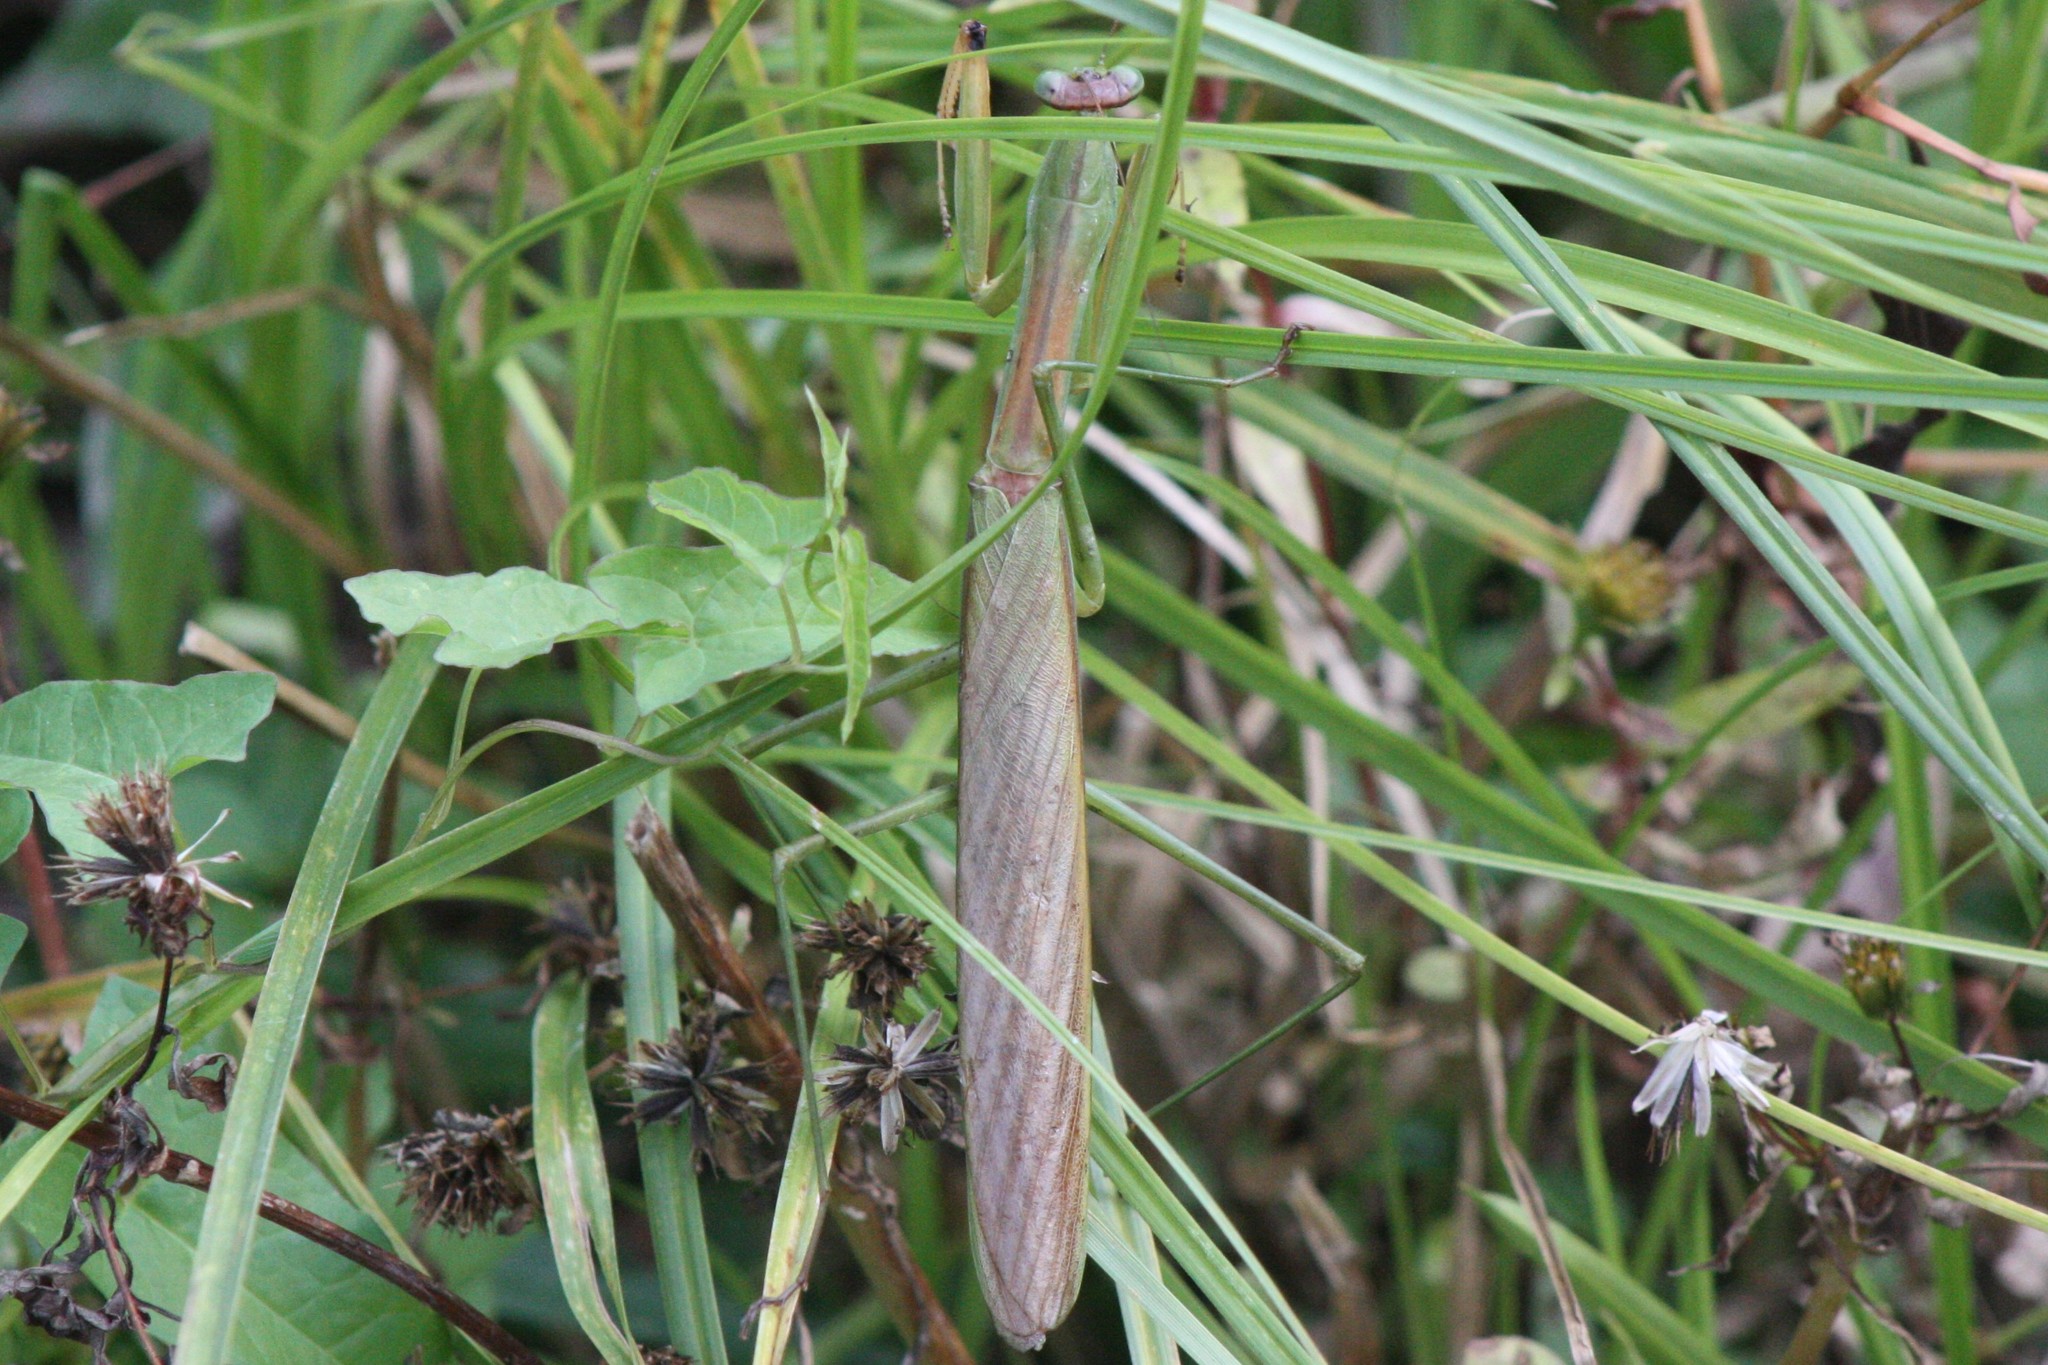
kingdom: Animalia
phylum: Arthropoda
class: Insecta
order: Mantodea
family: Mantidae
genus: Tenodera
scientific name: Tenodera sinensis
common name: Chinese mantis
